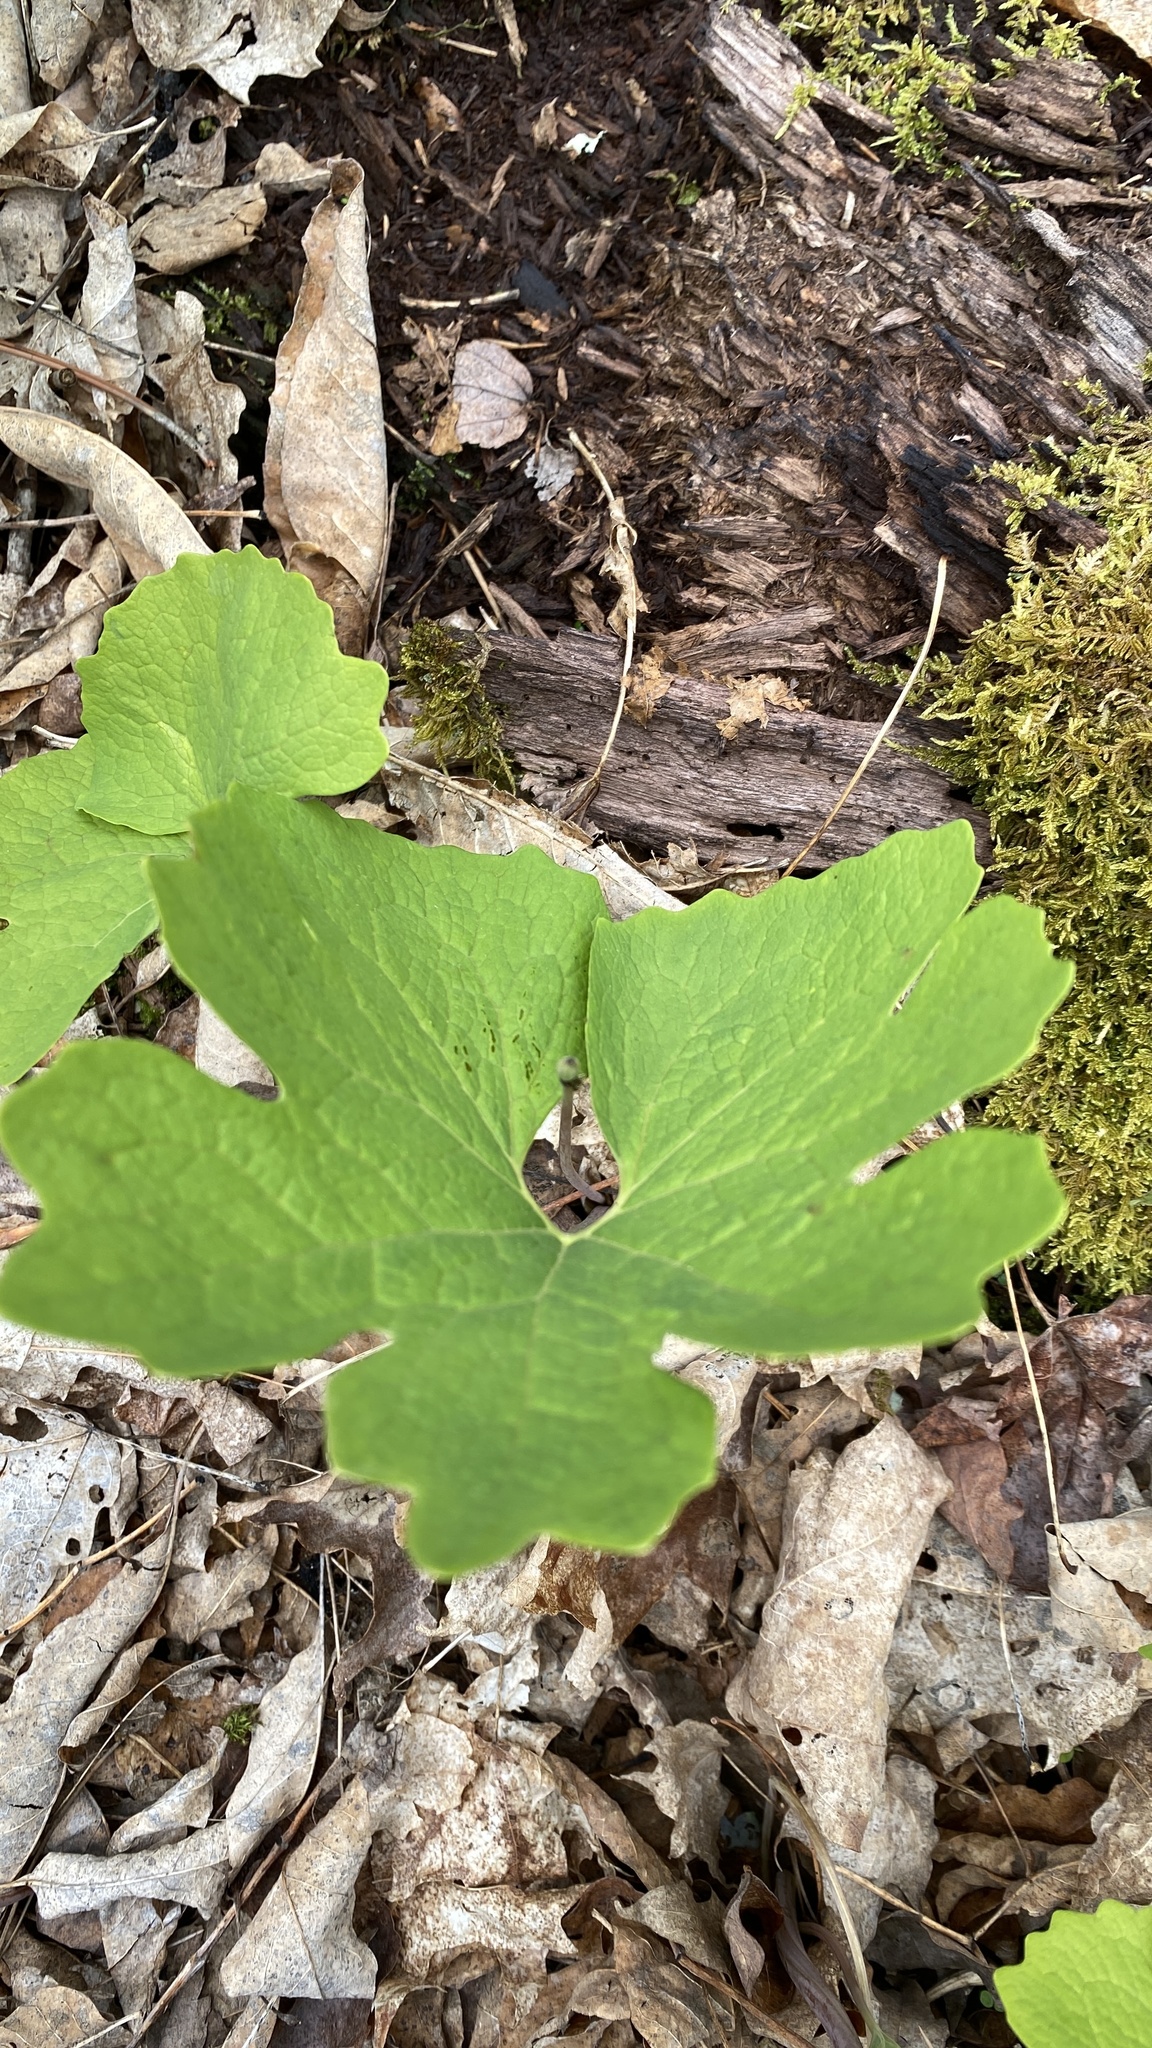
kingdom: Plantae
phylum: Tracheophyta
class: Magnoliopsida
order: Ranunculales
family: Papaveraceae
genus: Sanguinaria
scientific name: Sanguinaria canadensis
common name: Bloodroot
